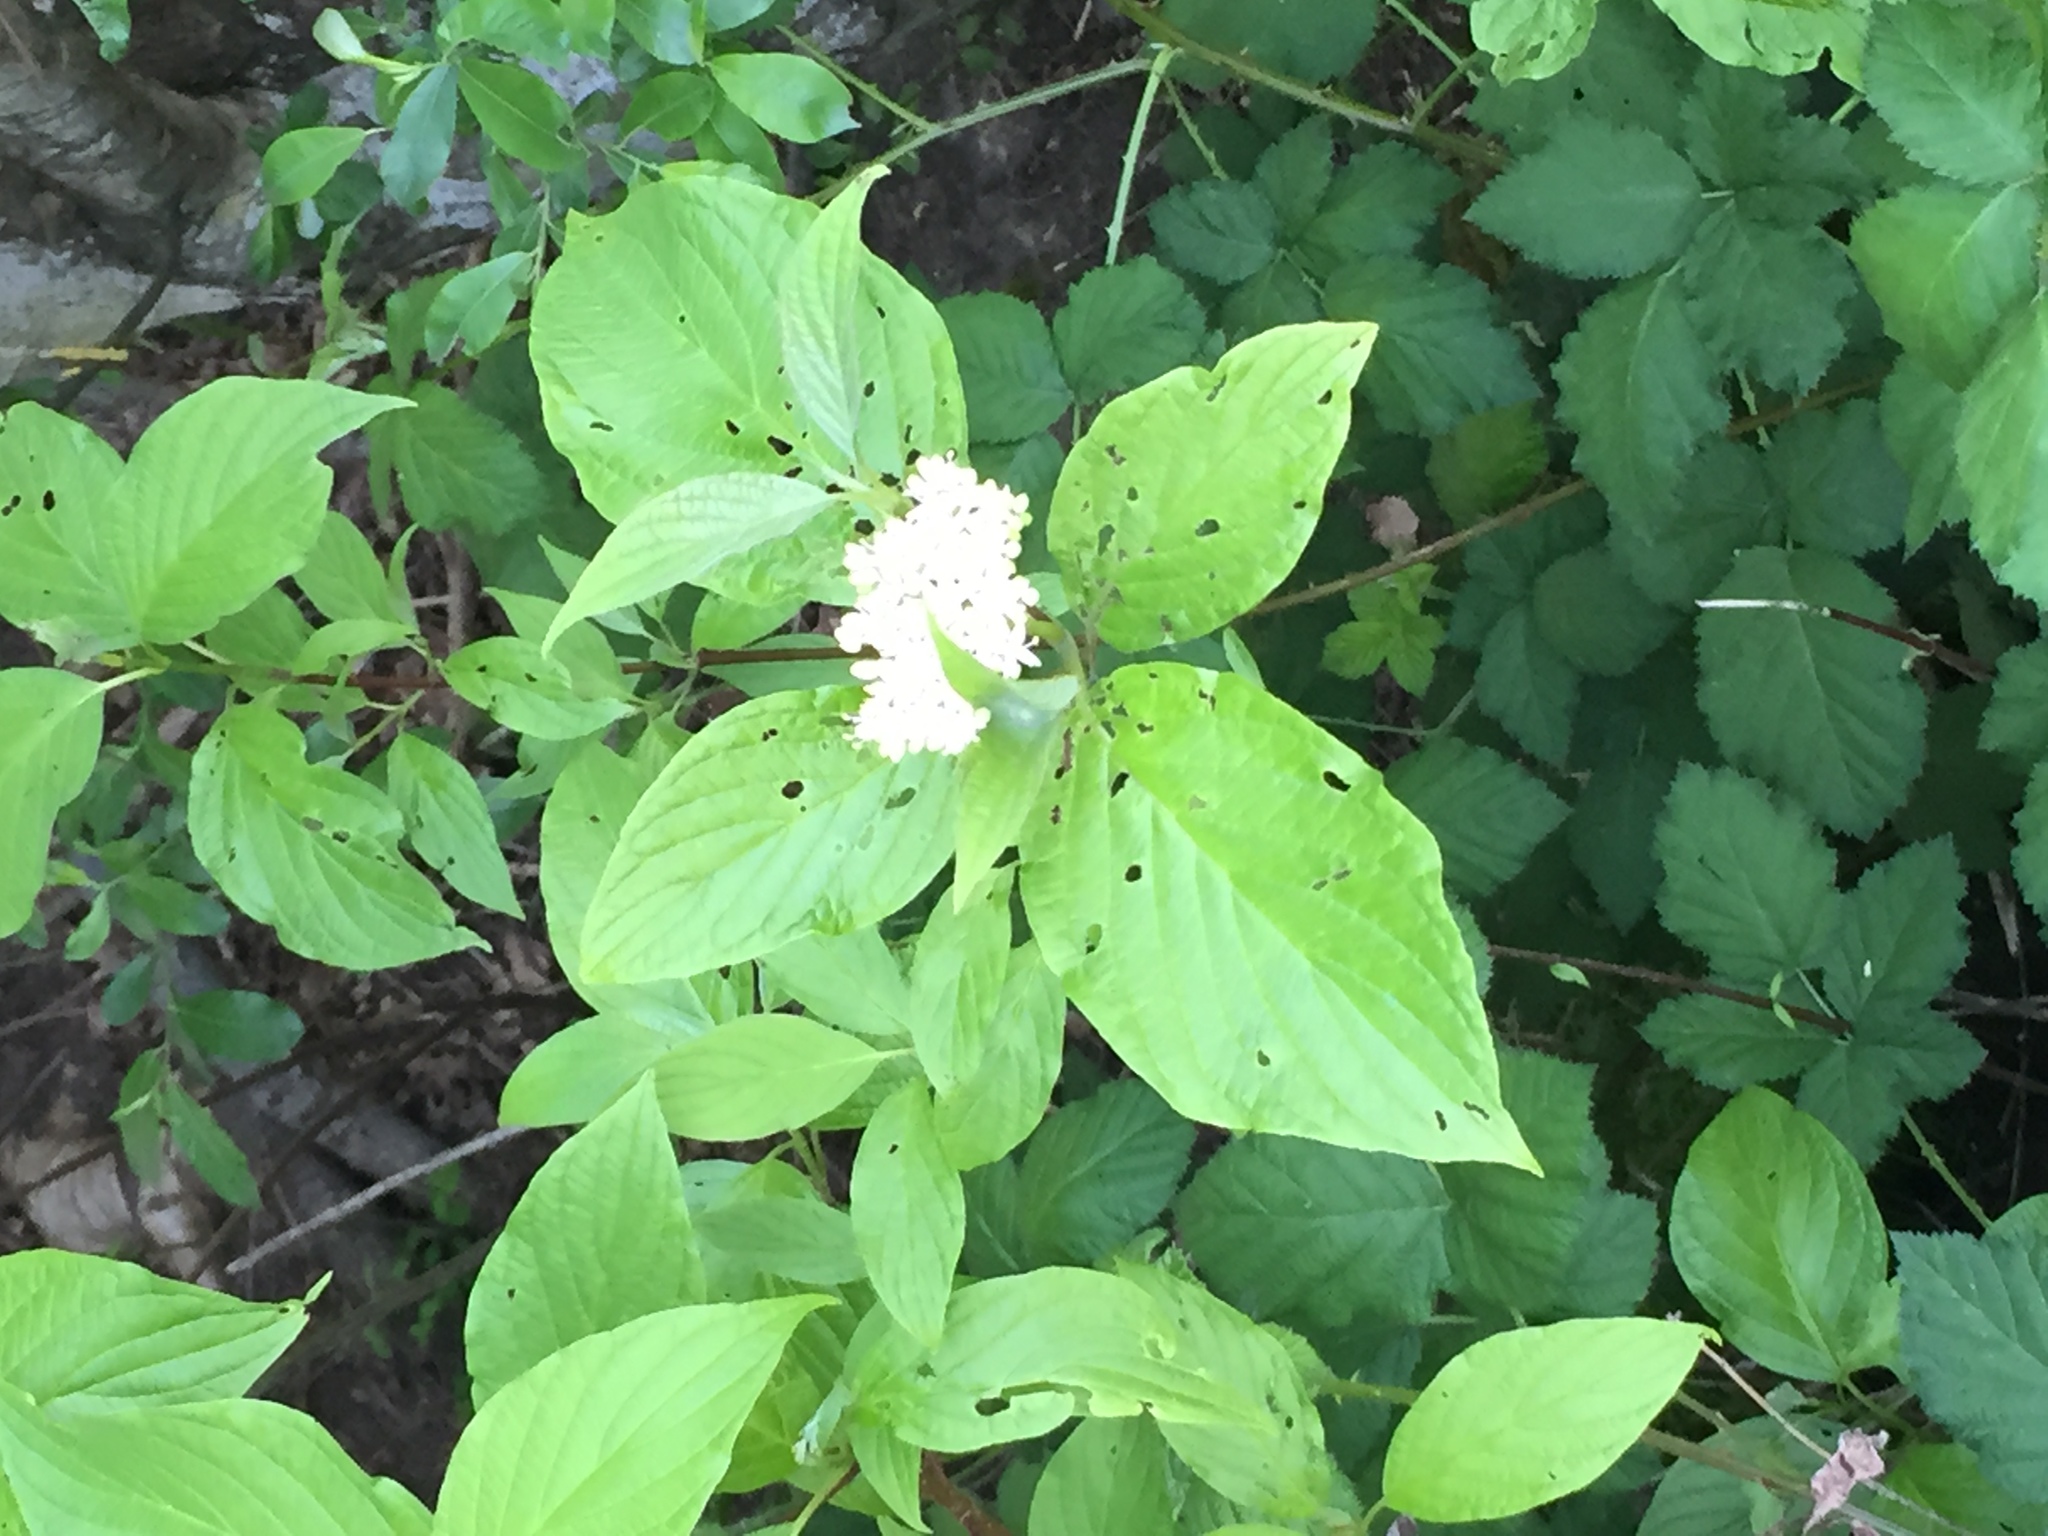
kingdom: Plantae
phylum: Tracheophyta
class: Magnoliopsida
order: Cornales
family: Cornaceae
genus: Cornus
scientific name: Cornus sericea
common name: Red-osier dogwood
